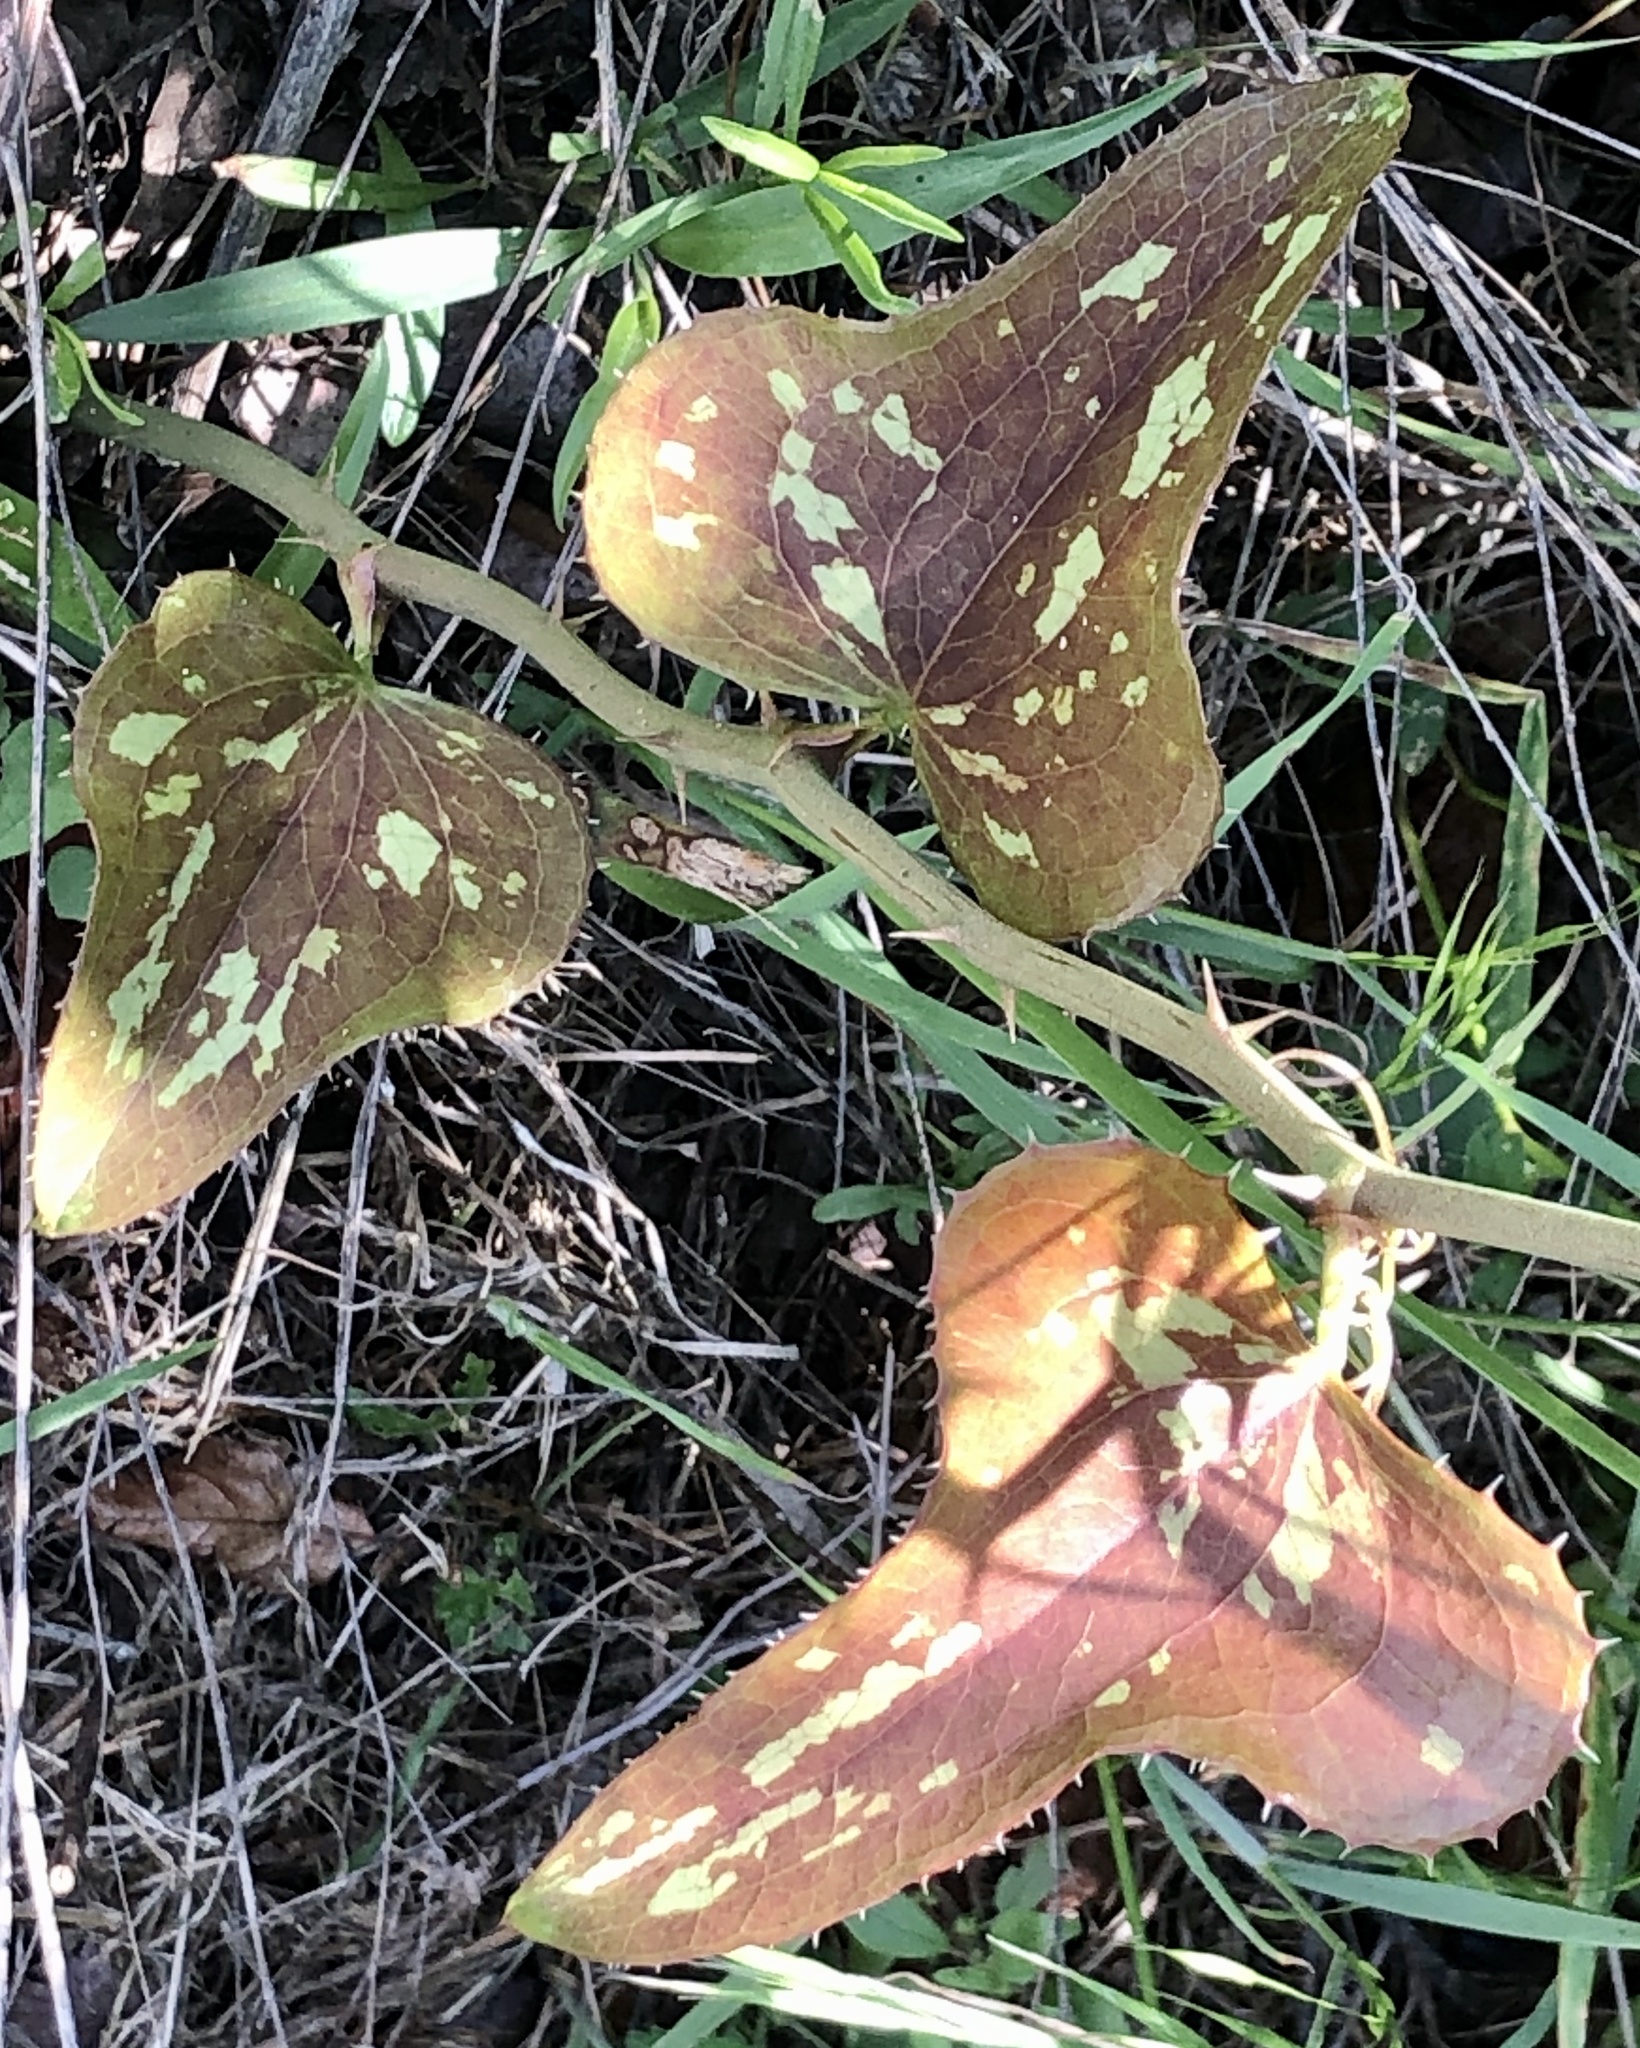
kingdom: Plantae
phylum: Tracheophyta
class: Liliopsida
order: Liliales
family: Smilacaceae
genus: Smilax
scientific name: Smilax bona-nox
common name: Catbrier
